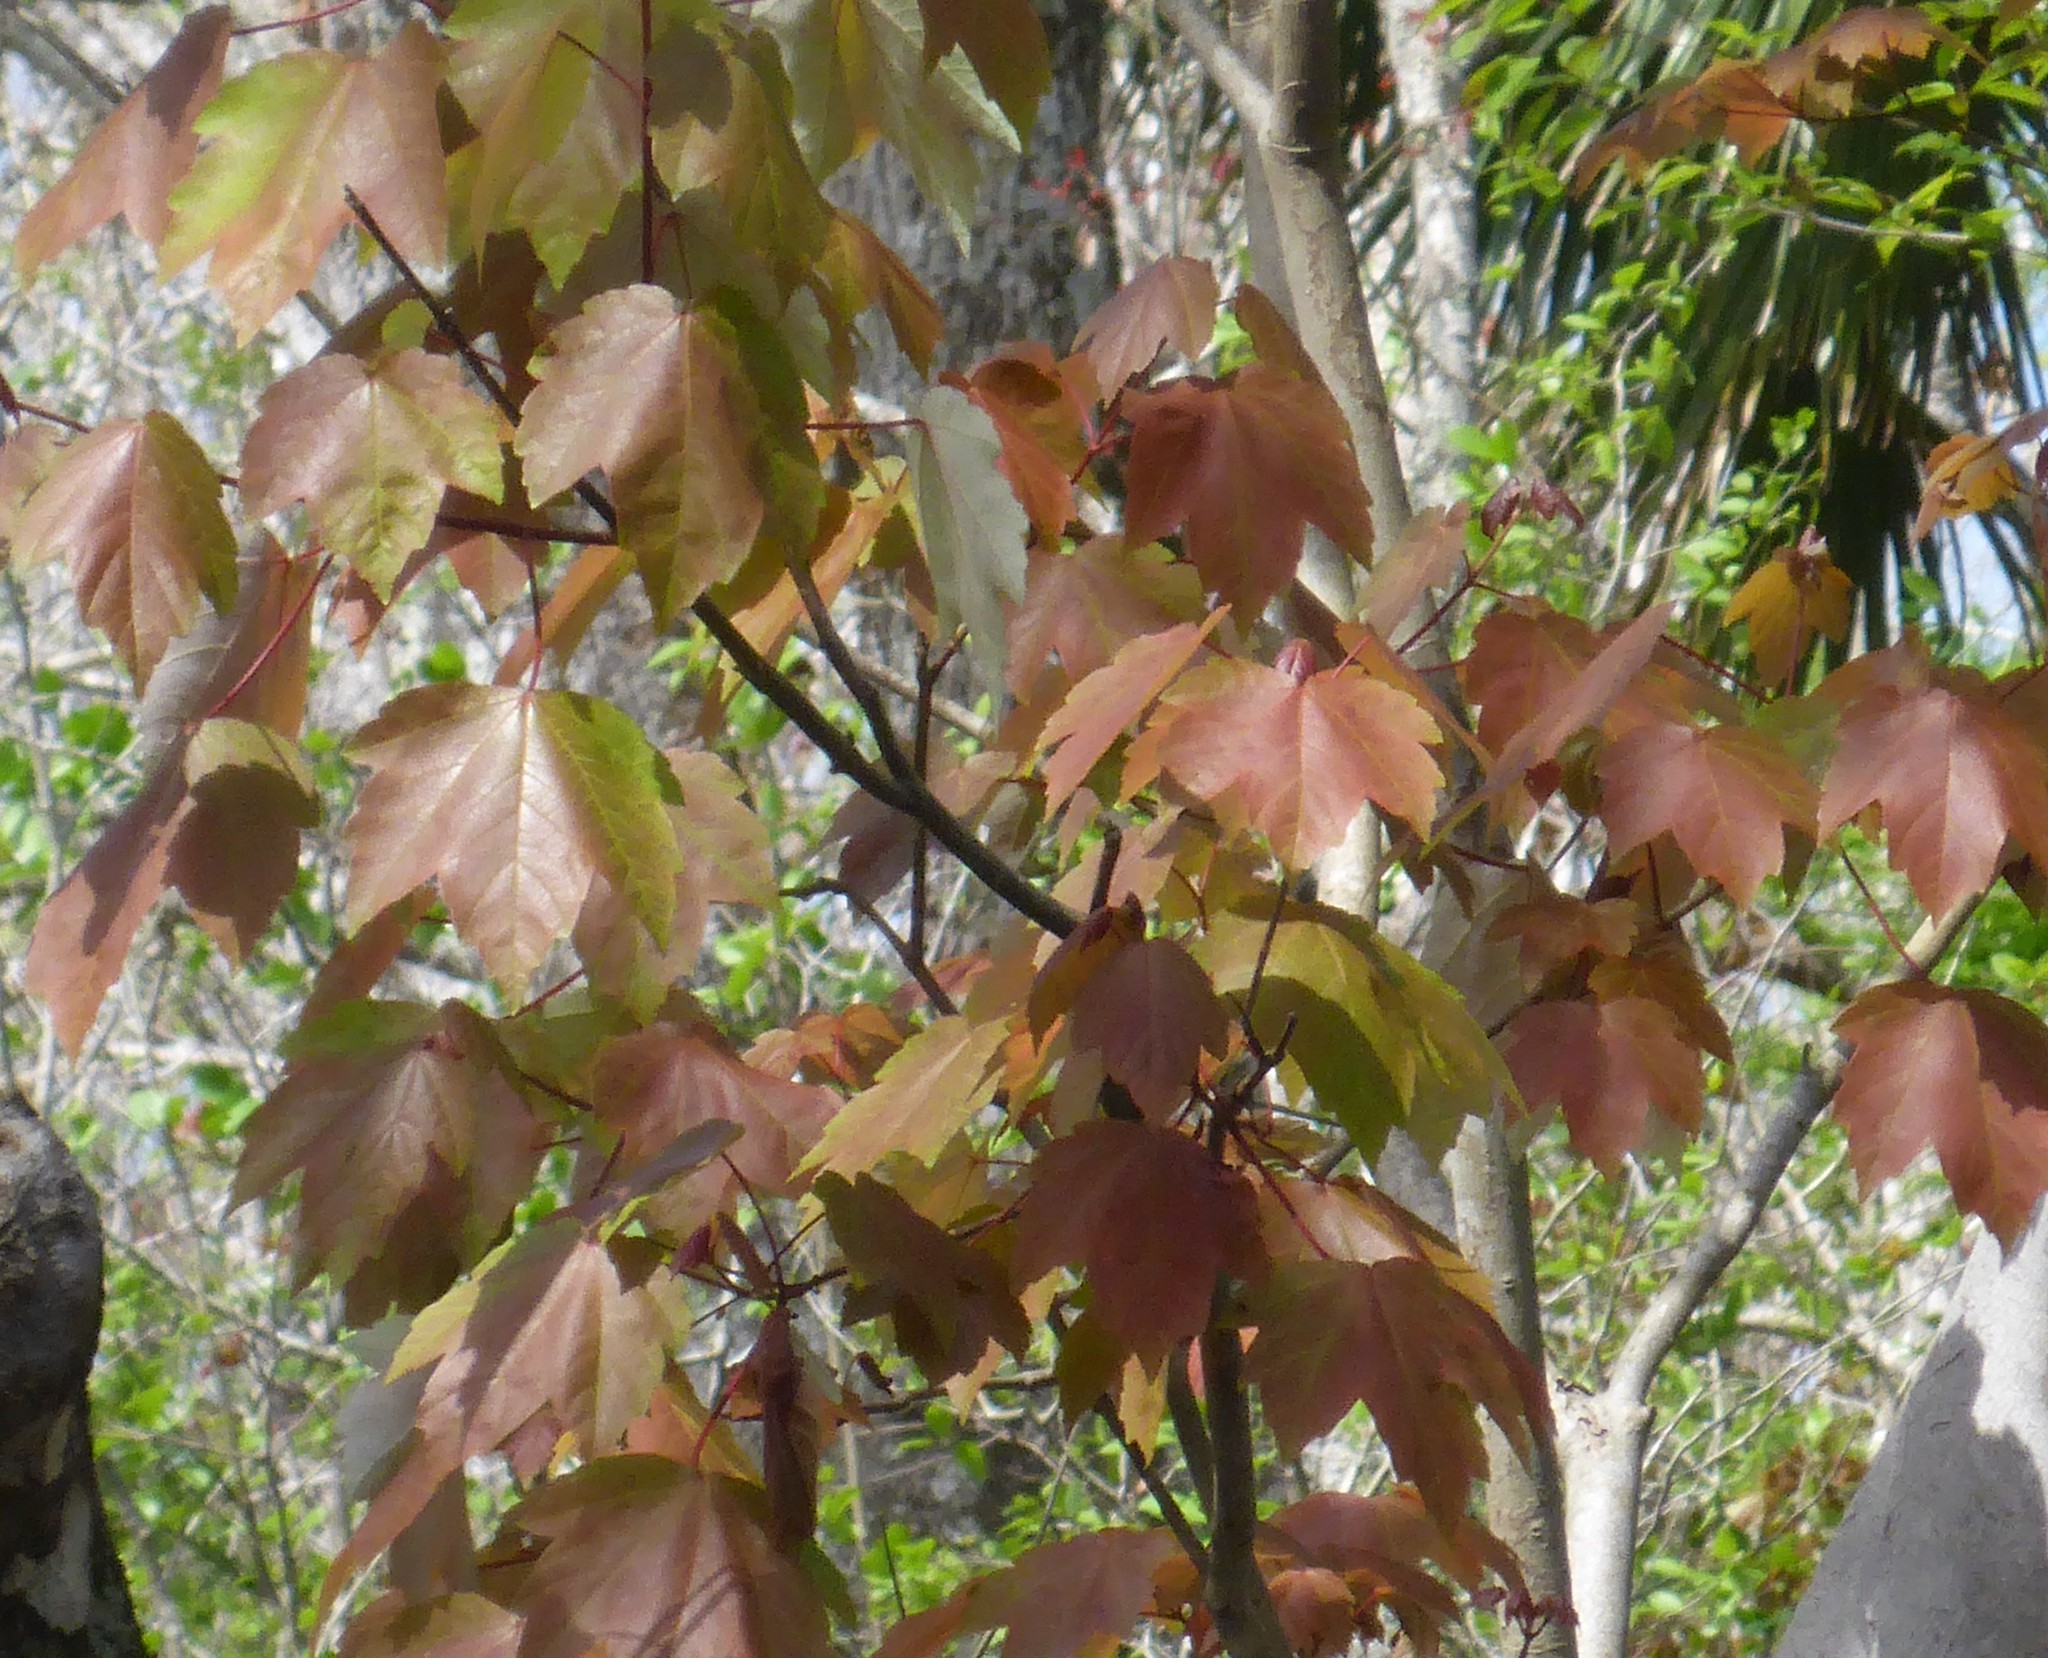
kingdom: Plantae
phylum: Tracheophyta
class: Magnoliopsida
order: Sapindales
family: Sapindaceae
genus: Acer
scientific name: Acer rubrum
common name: Red maple
